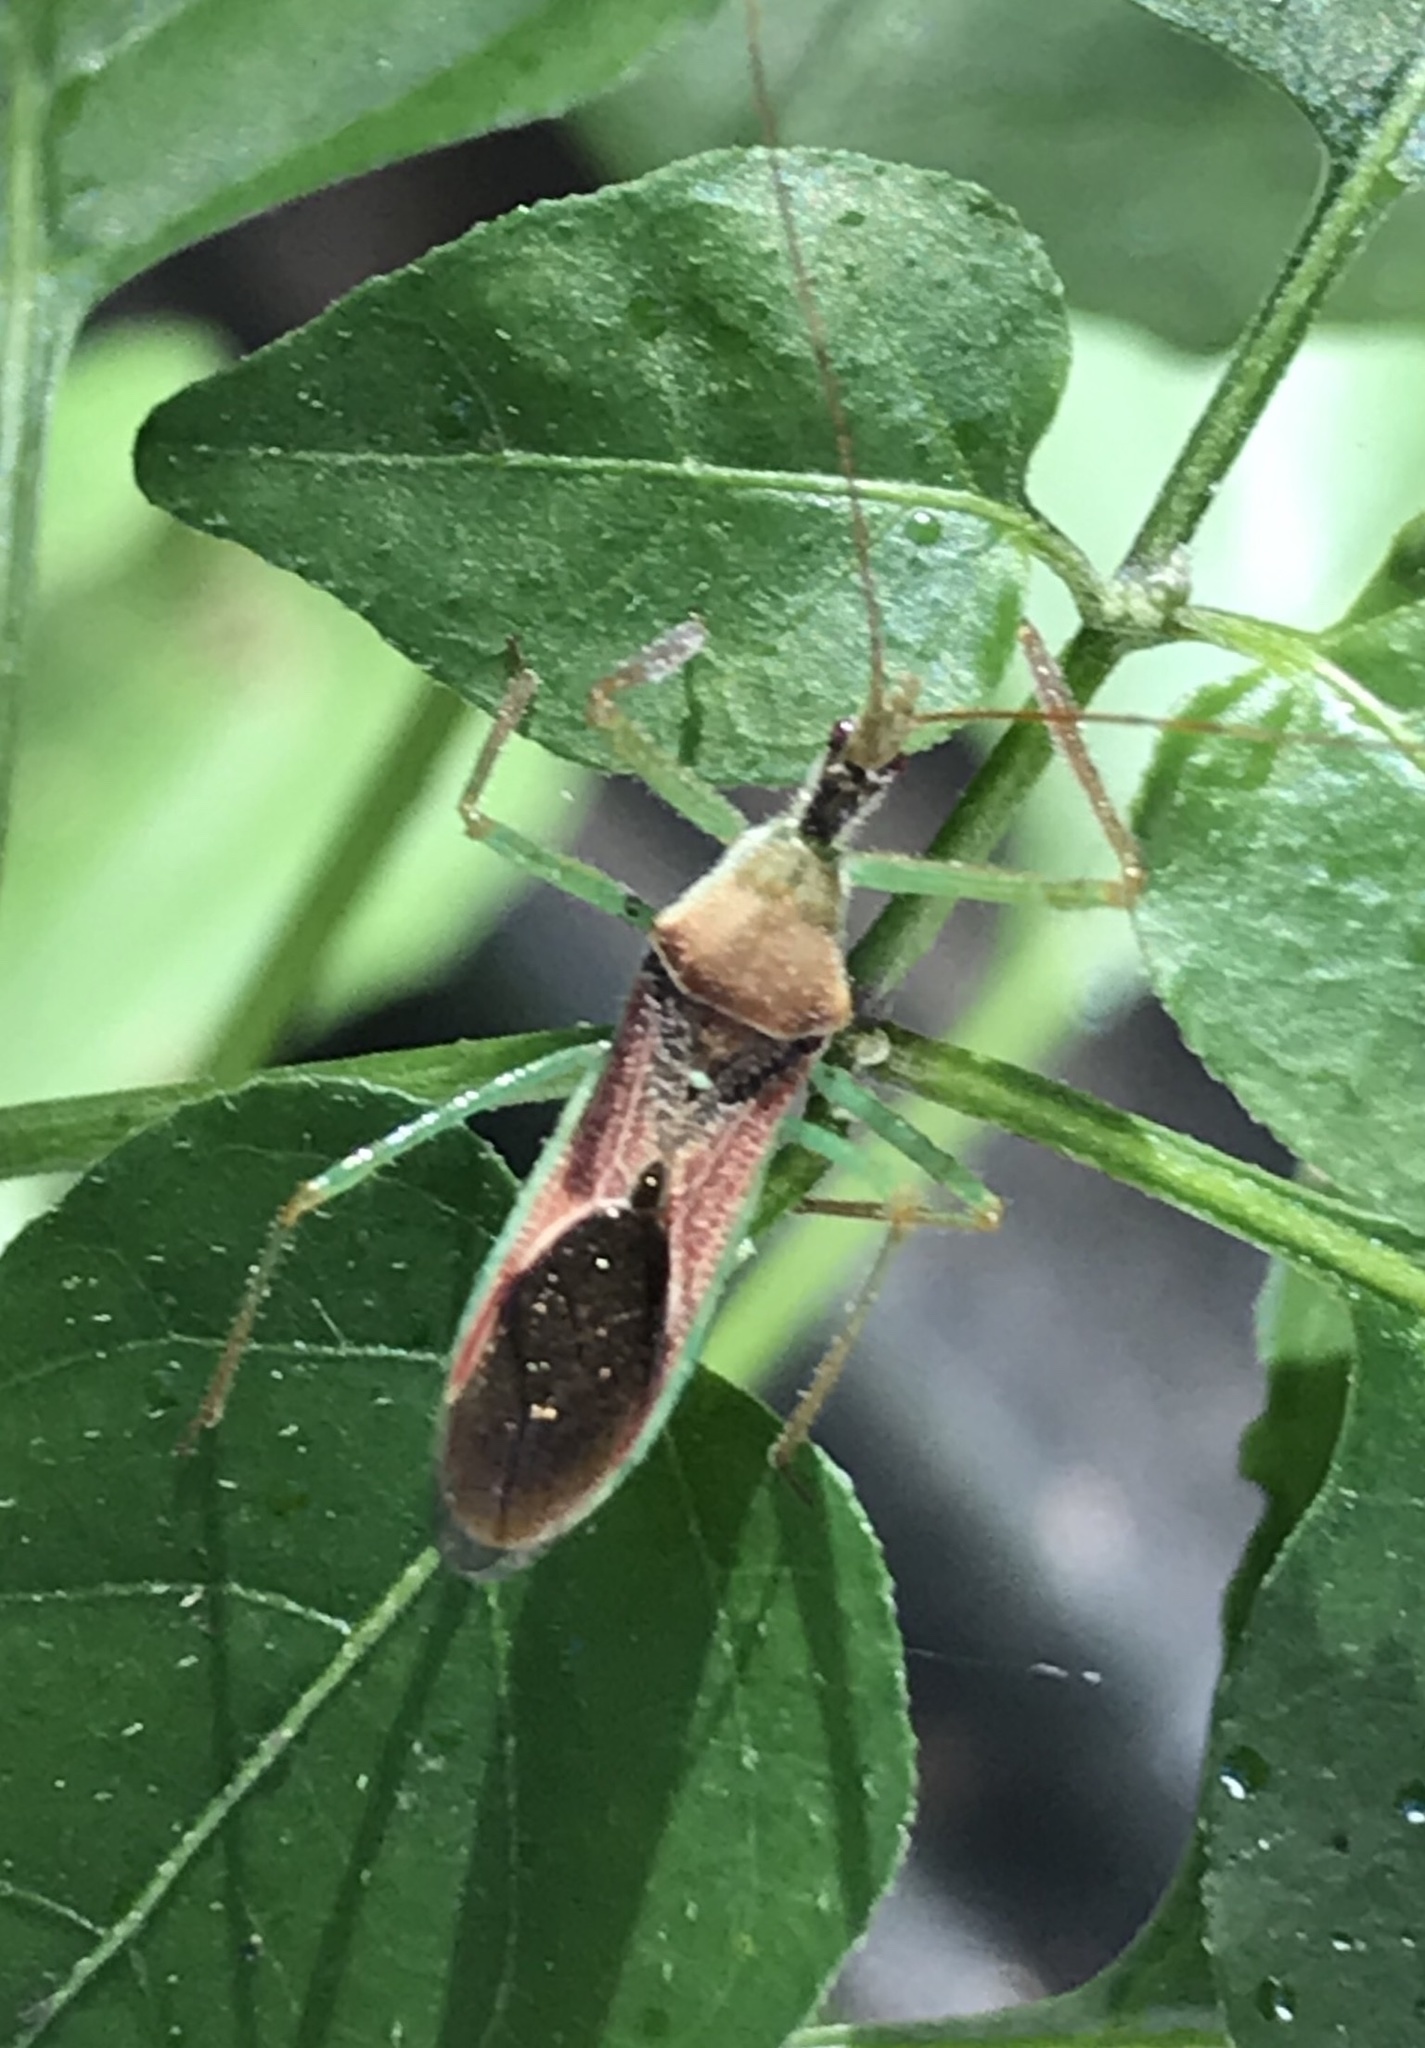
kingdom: Animalia
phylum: Arthropoda
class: Insecta
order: Hemiptera
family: Reduviidae
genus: Zelus
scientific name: Zelus renardii
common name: Assassin bug
